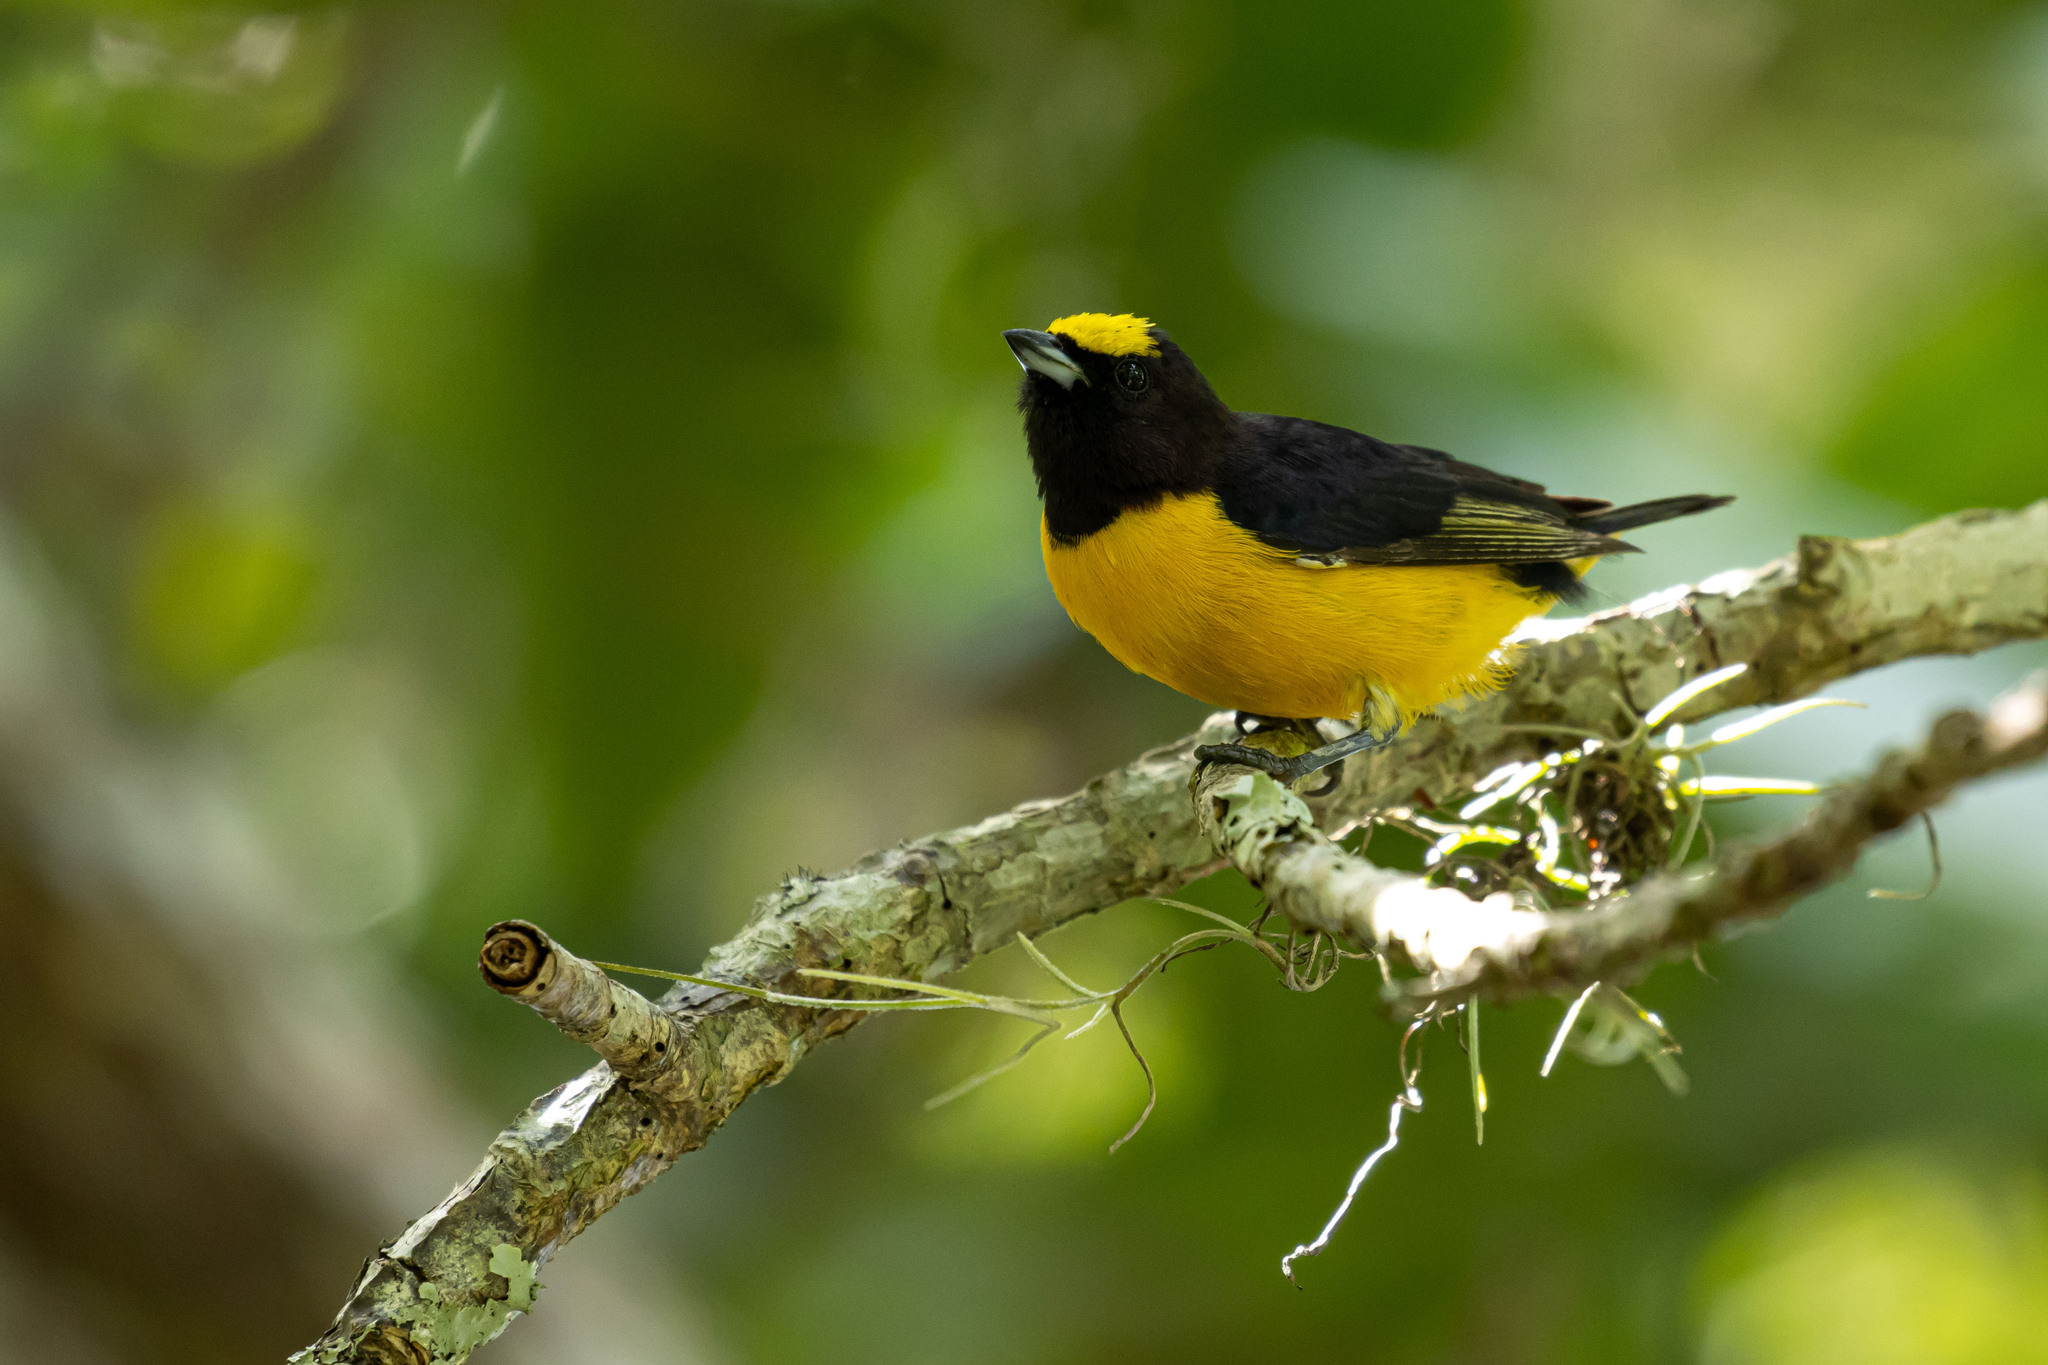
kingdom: Animalia
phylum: Chordata
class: Aves
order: Passeriformes
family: Fringillidae
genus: Euphonia
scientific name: Euphonia chlorotica
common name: Purple-throated euphonia
